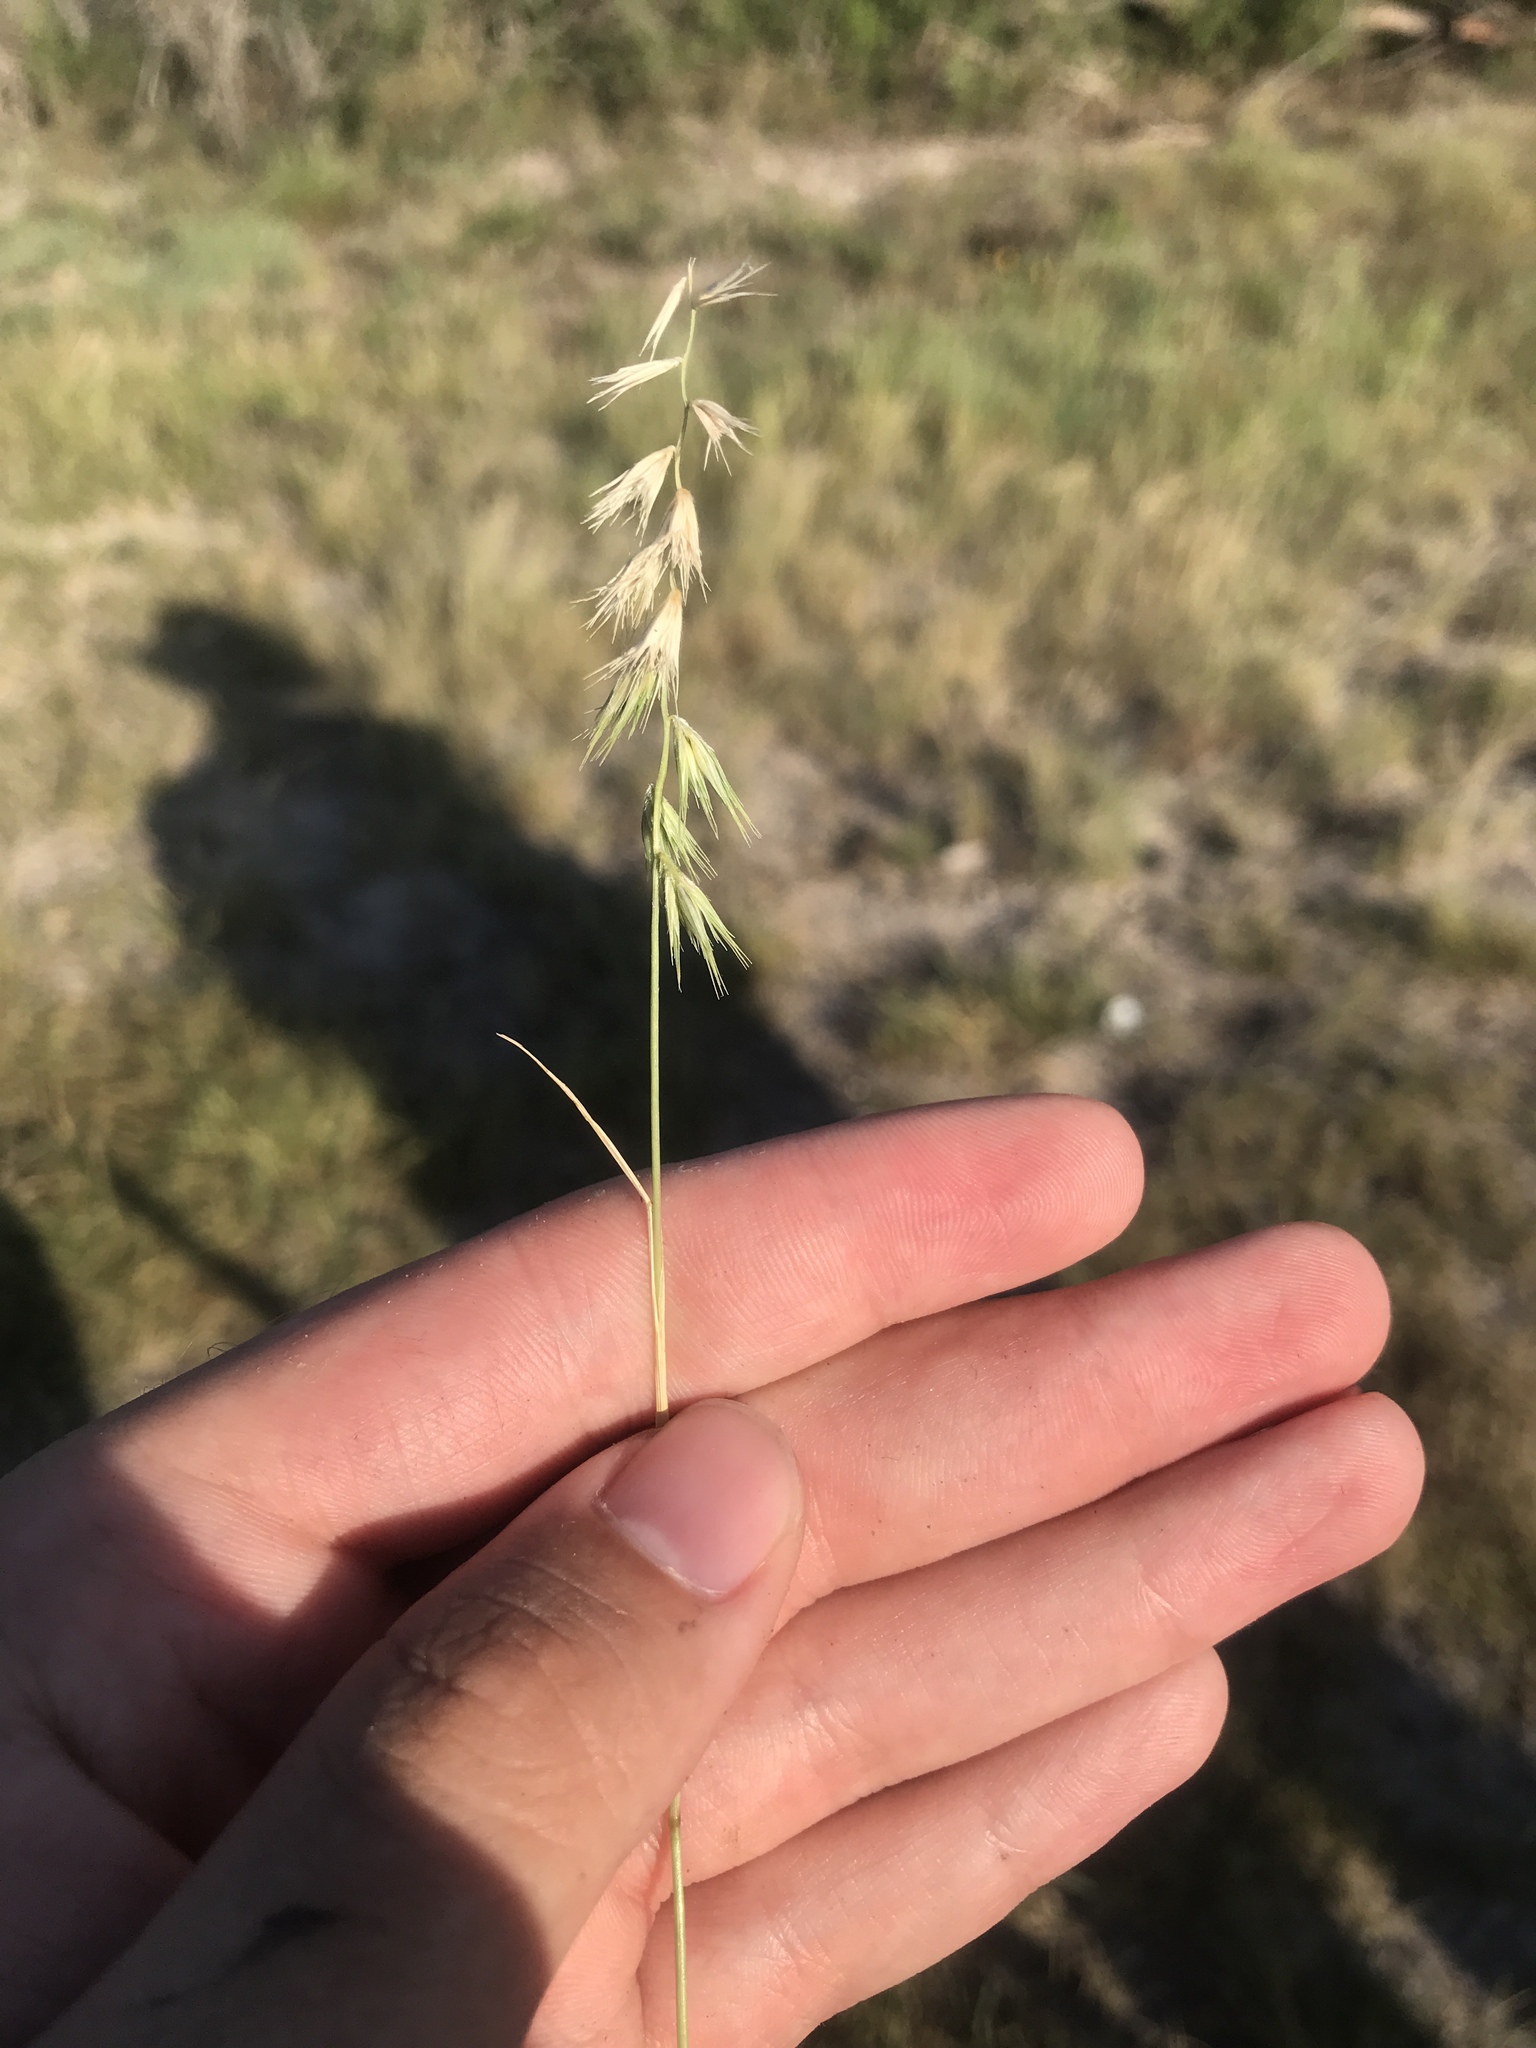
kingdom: Plantae
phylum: Tracheophyta
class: Liliopsida
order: Poales
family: Poaceae
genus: Bouteloua
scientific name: Bouteloua rigidiseta
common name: Texas grama
